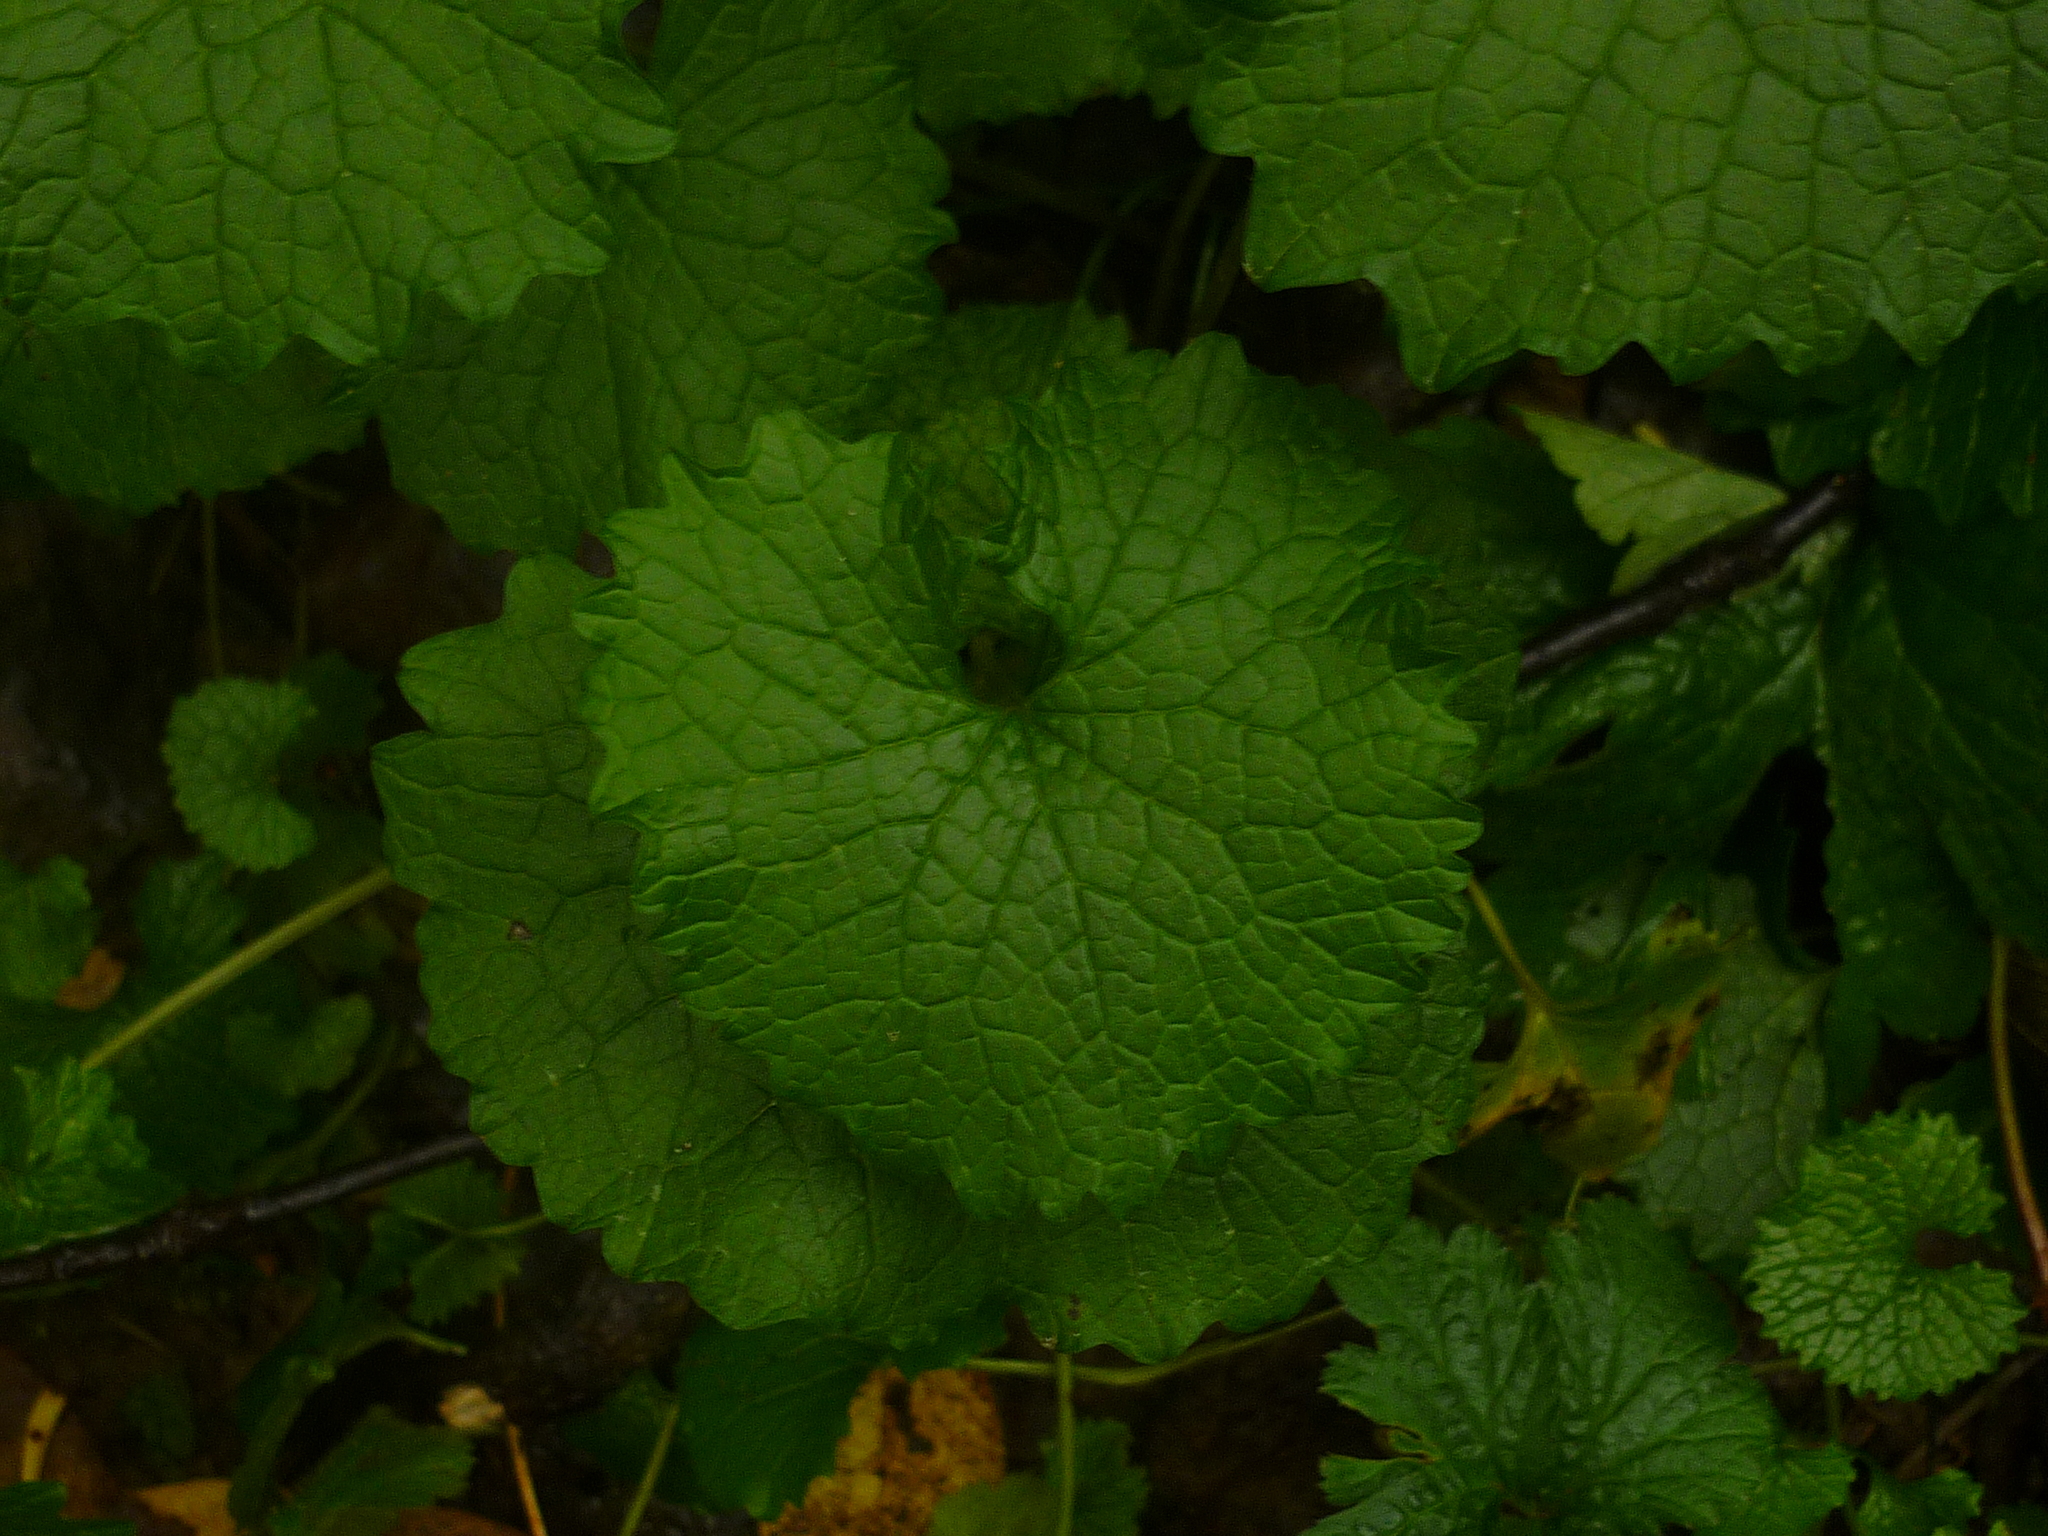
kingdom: Plantae
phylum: Tracheophyta
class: Magnoliopsida
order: Brassicales
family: Brassicaceae
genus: Alliaria
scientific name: Alliaria petiolata
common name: Garlic mustard
